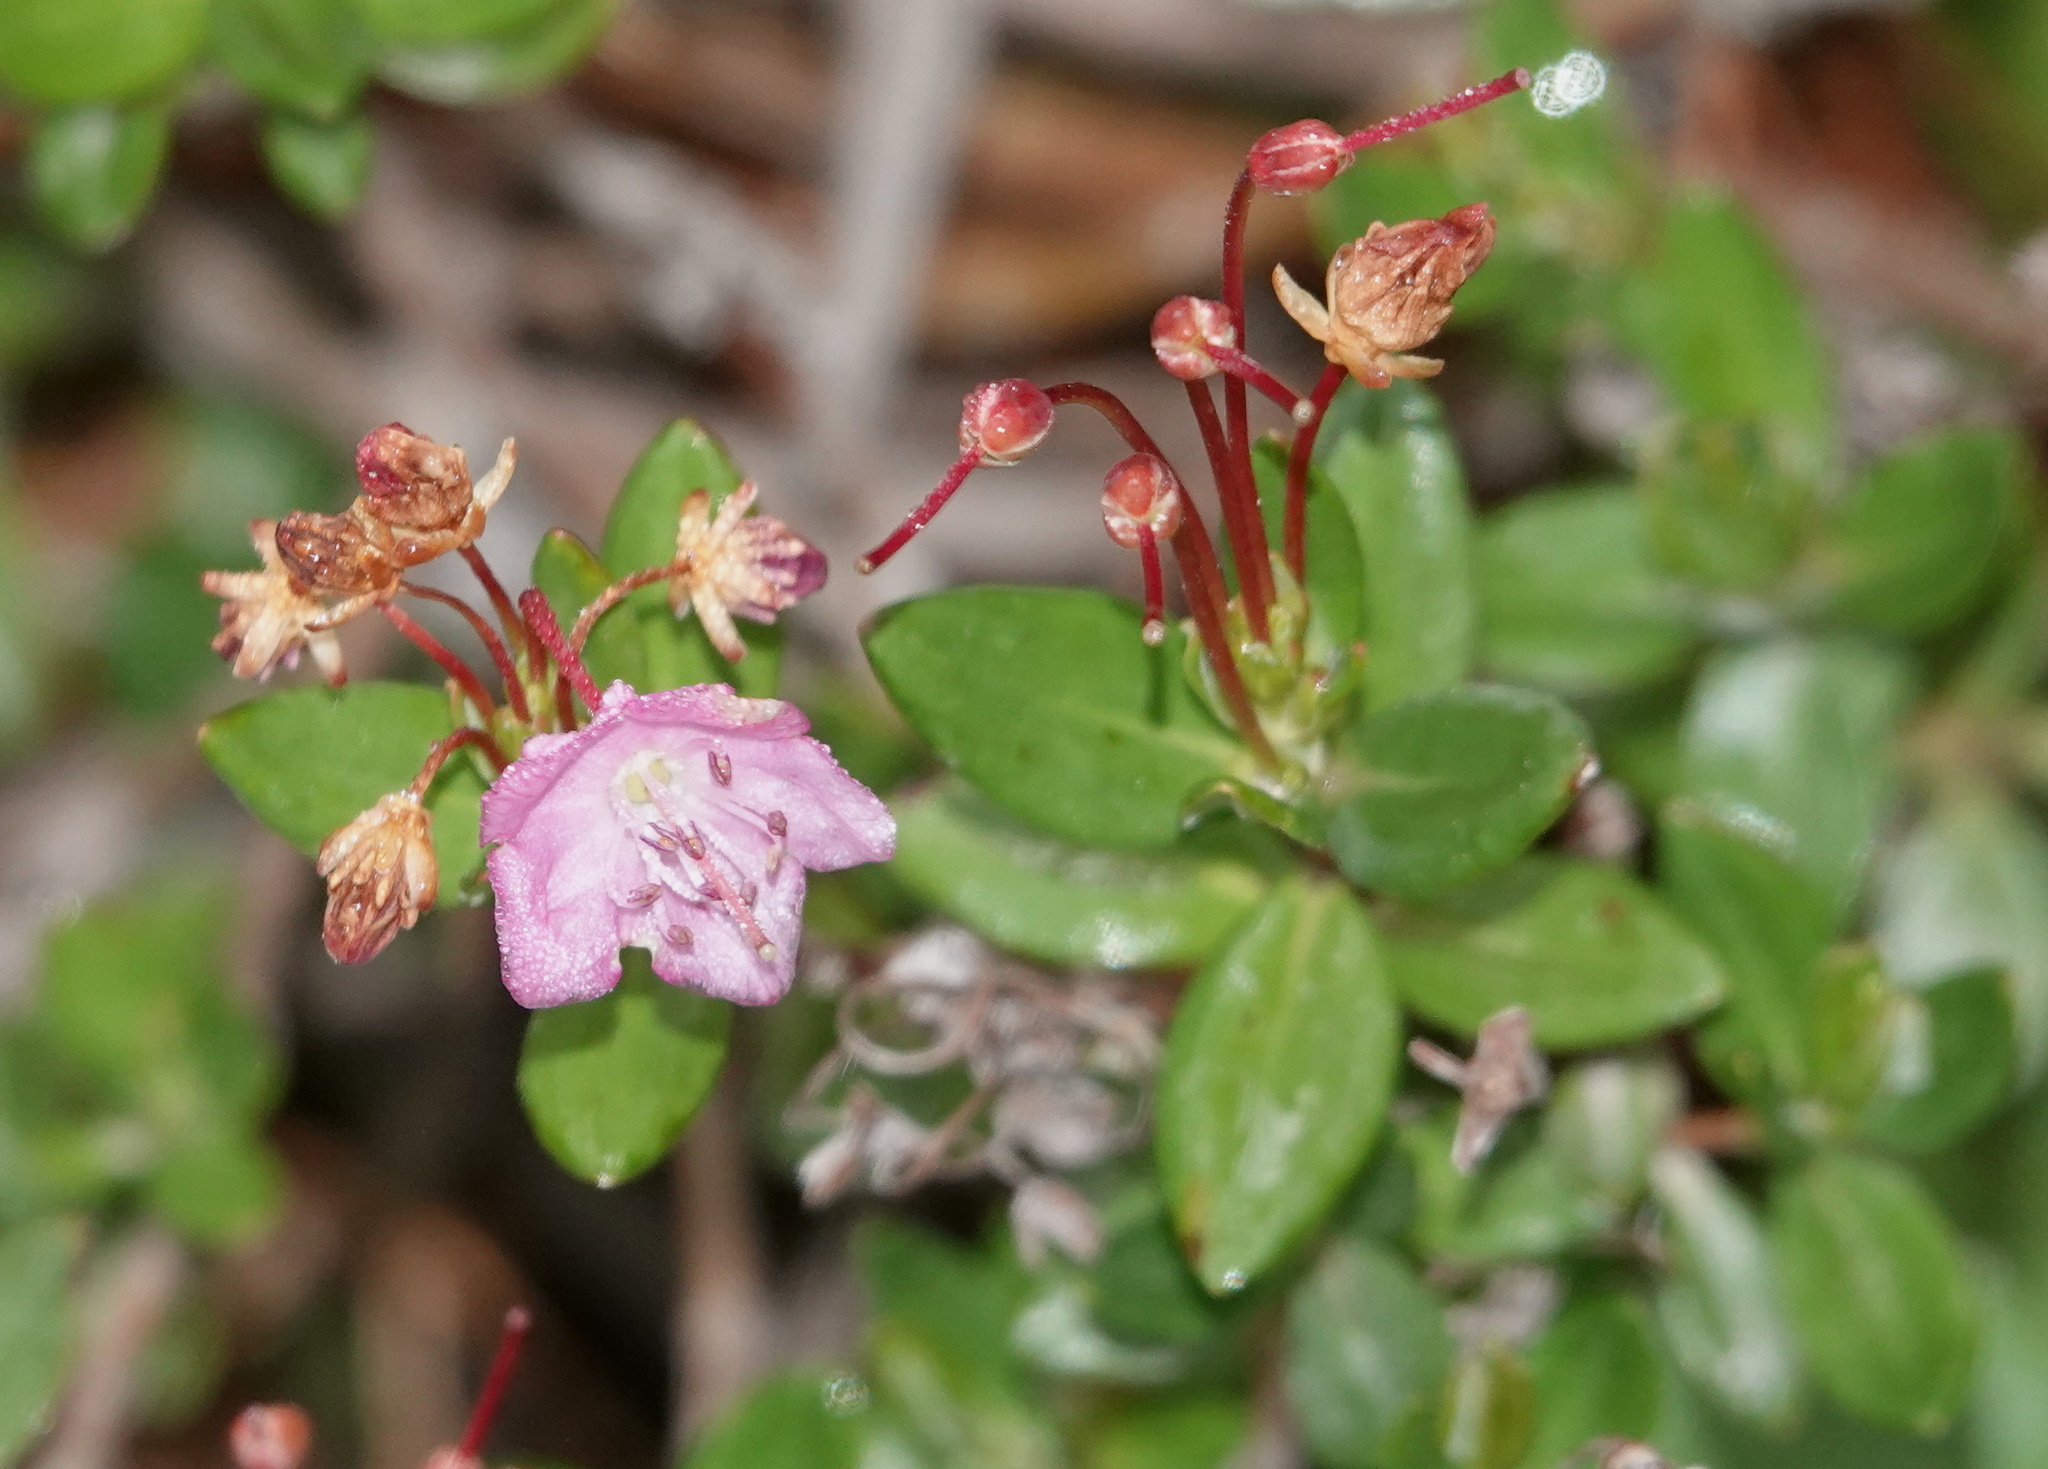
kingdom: Plantae
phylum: Tracheophyta
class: Magnoliopsida
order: Ericales
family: Ericaceae
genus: Kalmia
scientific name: Kalmia microphylla
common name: Alpine bog laurel
